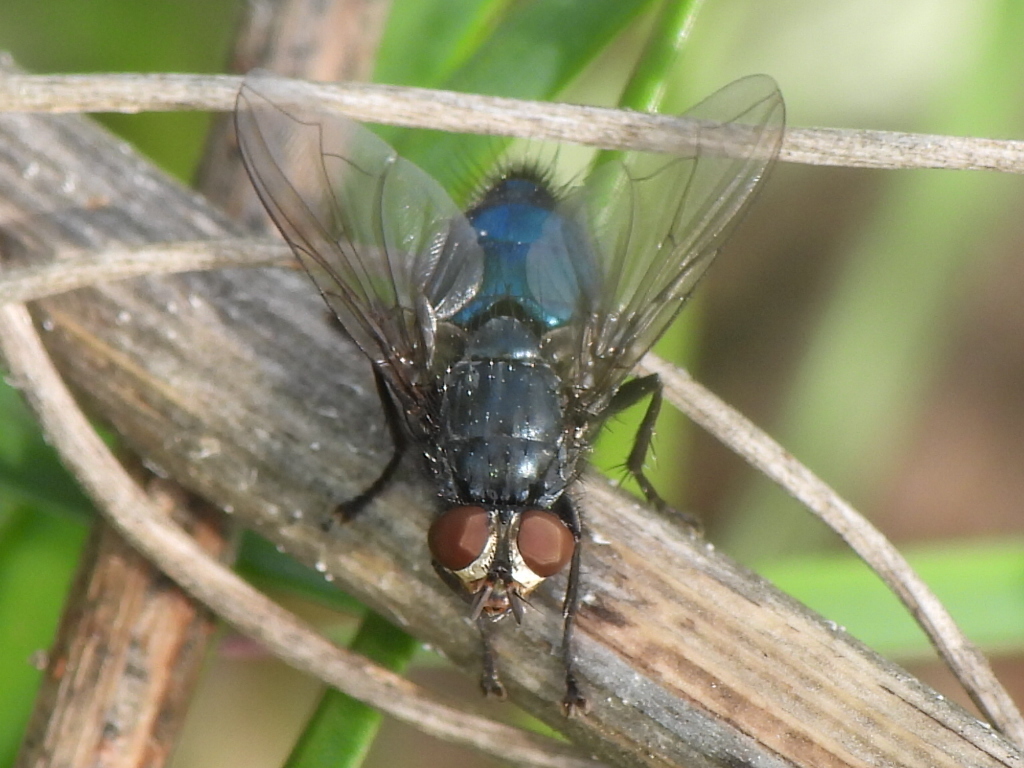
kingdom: Animalia
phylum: Arthropoda
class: Insecta
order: Diptera
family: Calliphoridae
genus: Cynomya
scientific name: Cynomya cadaverina
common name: Shiny blue bottle fly
